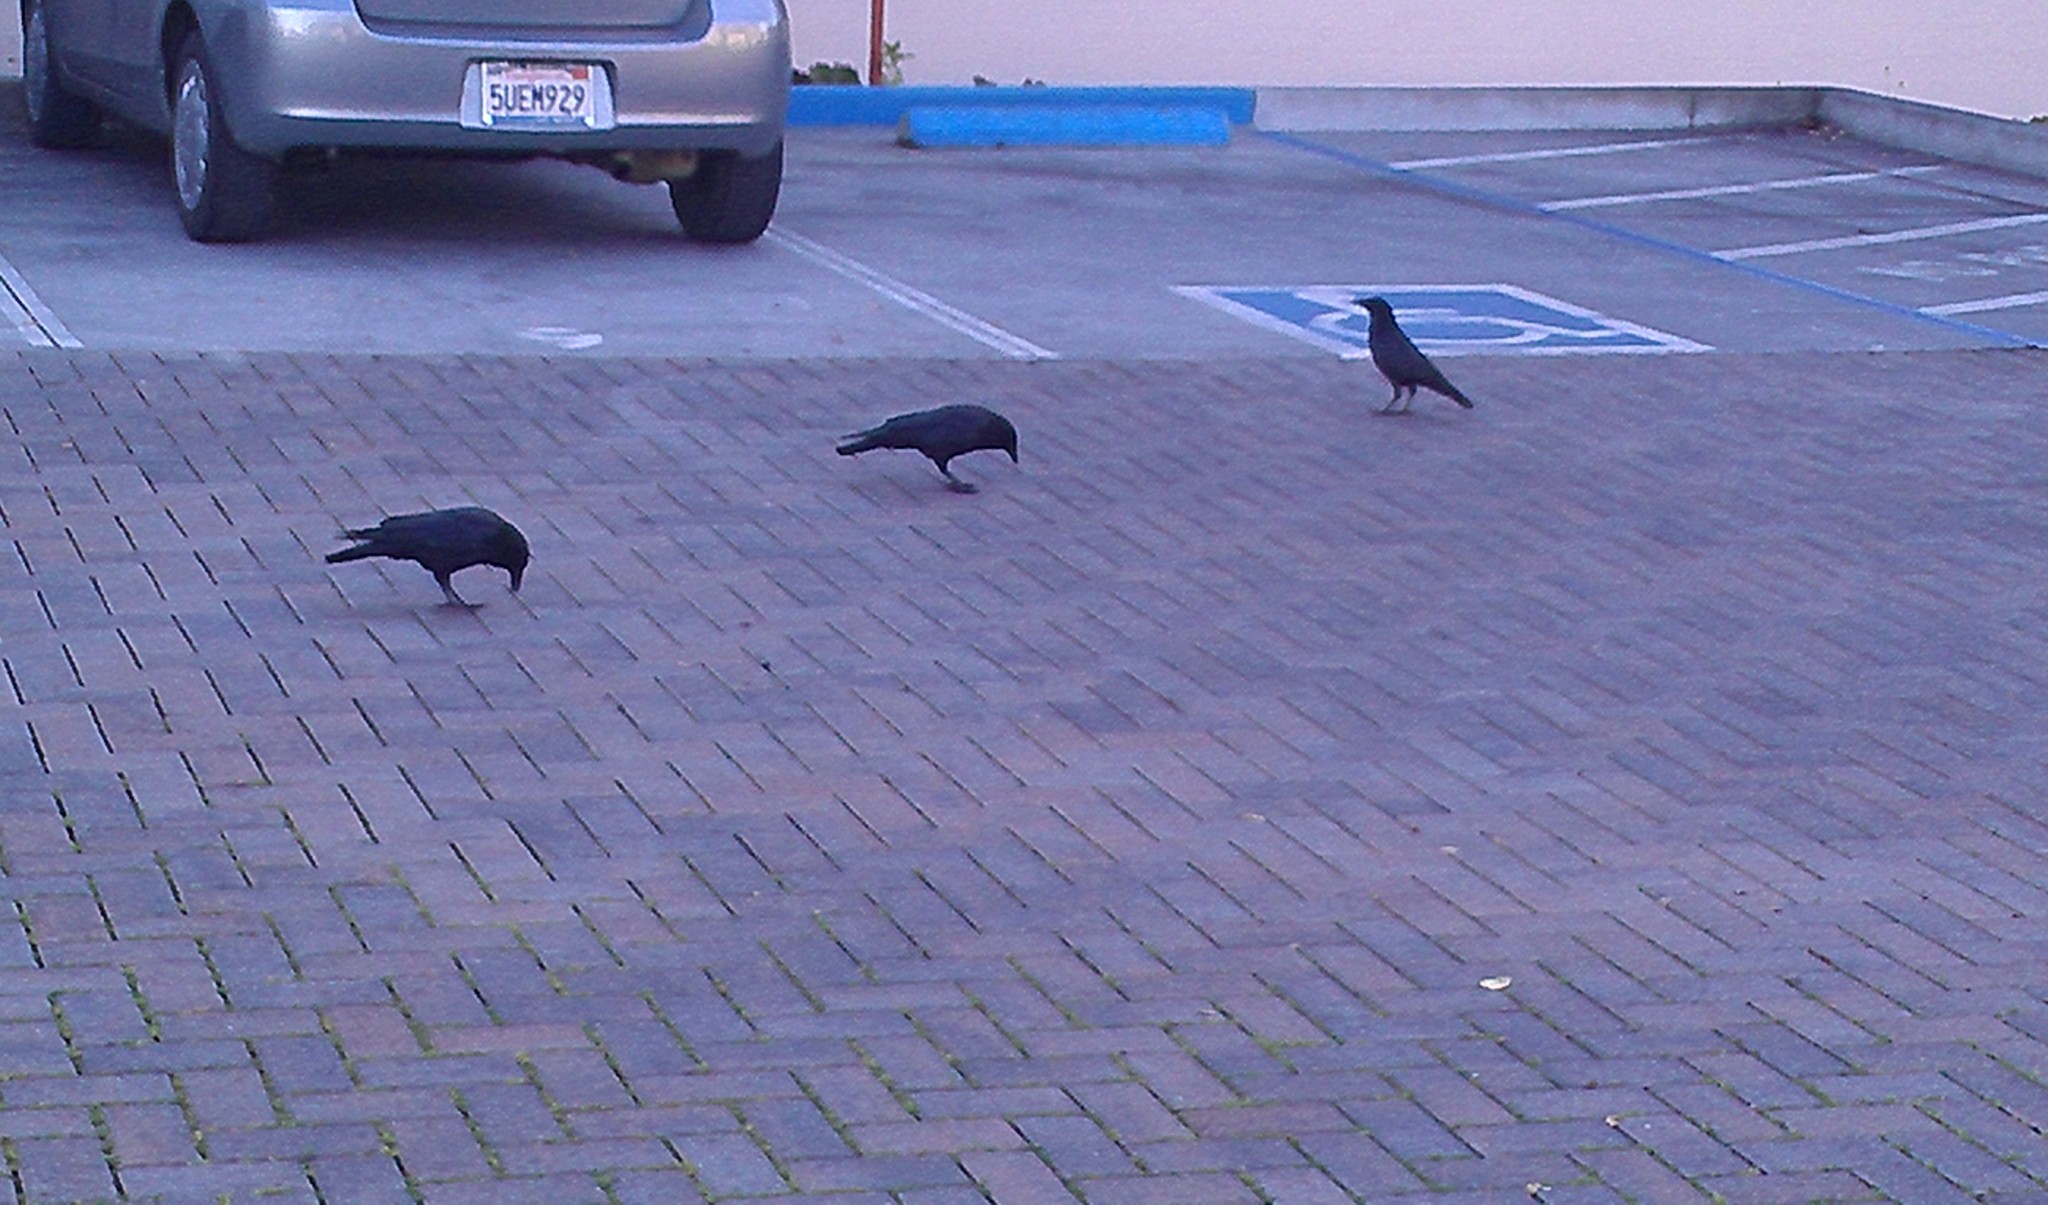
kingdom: Animalia
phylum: Chordata
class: Aves
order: Passeriformes
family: Corvidae
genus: Corvus
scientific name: Corvus brachyrhynchos
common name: American crow
